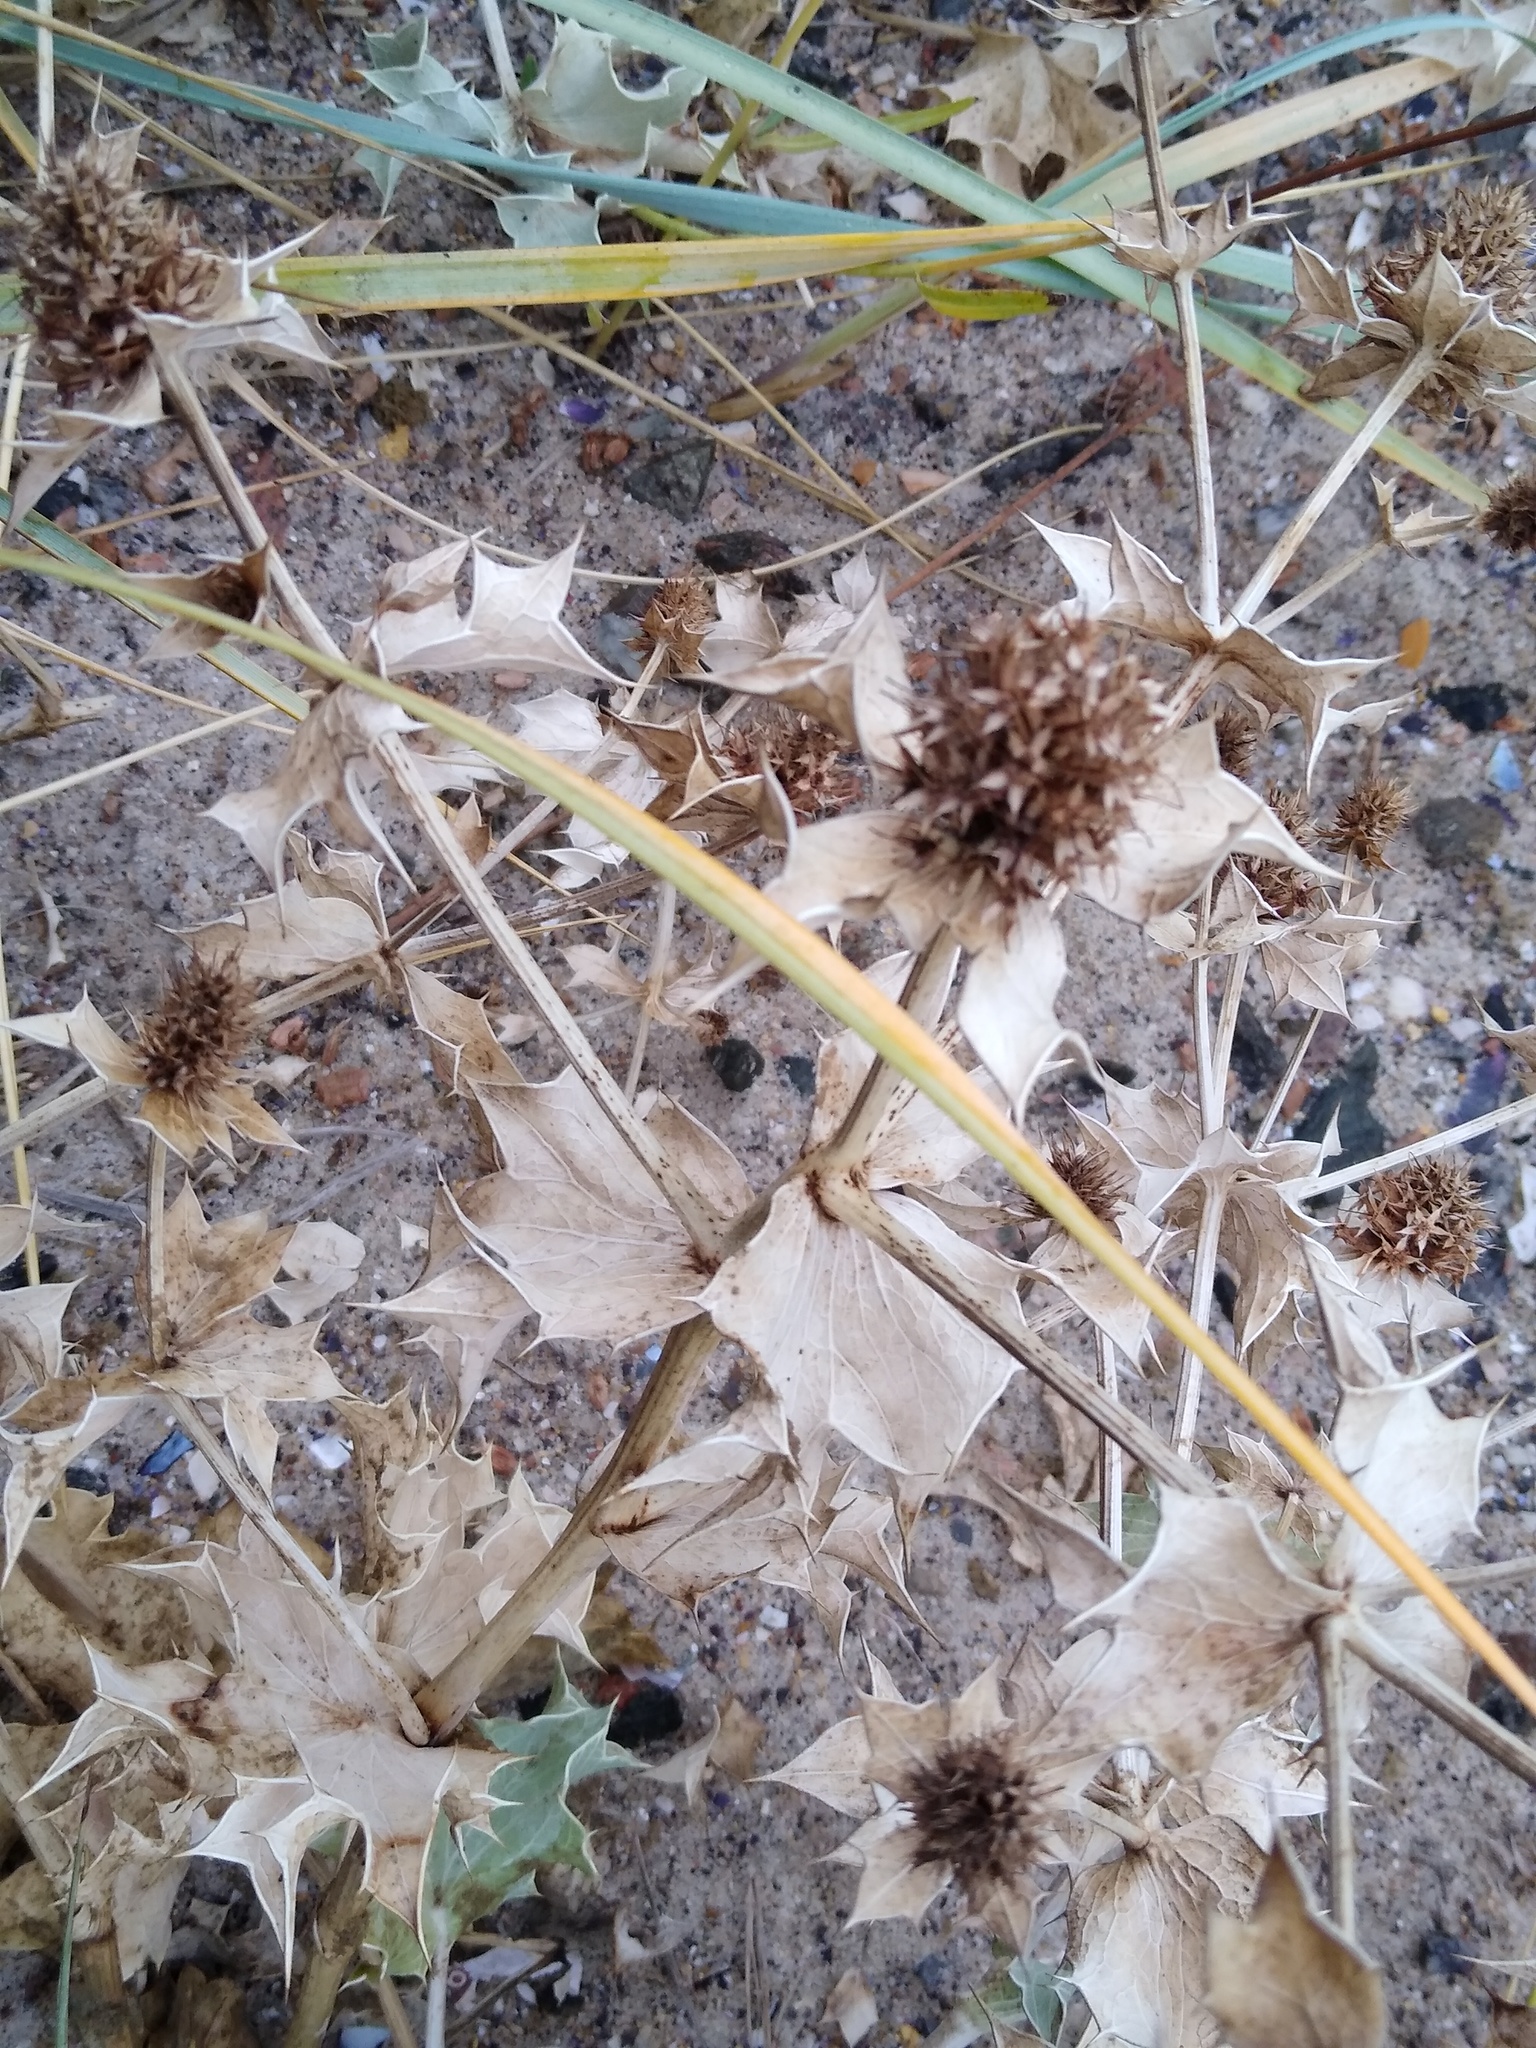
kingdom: Plantae
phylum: Tracheophyta
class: Magnoliopsida
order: Apiales
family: Apiaceae
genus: Eryngium
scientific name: Eryngium maritimum
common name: Sea-holly
